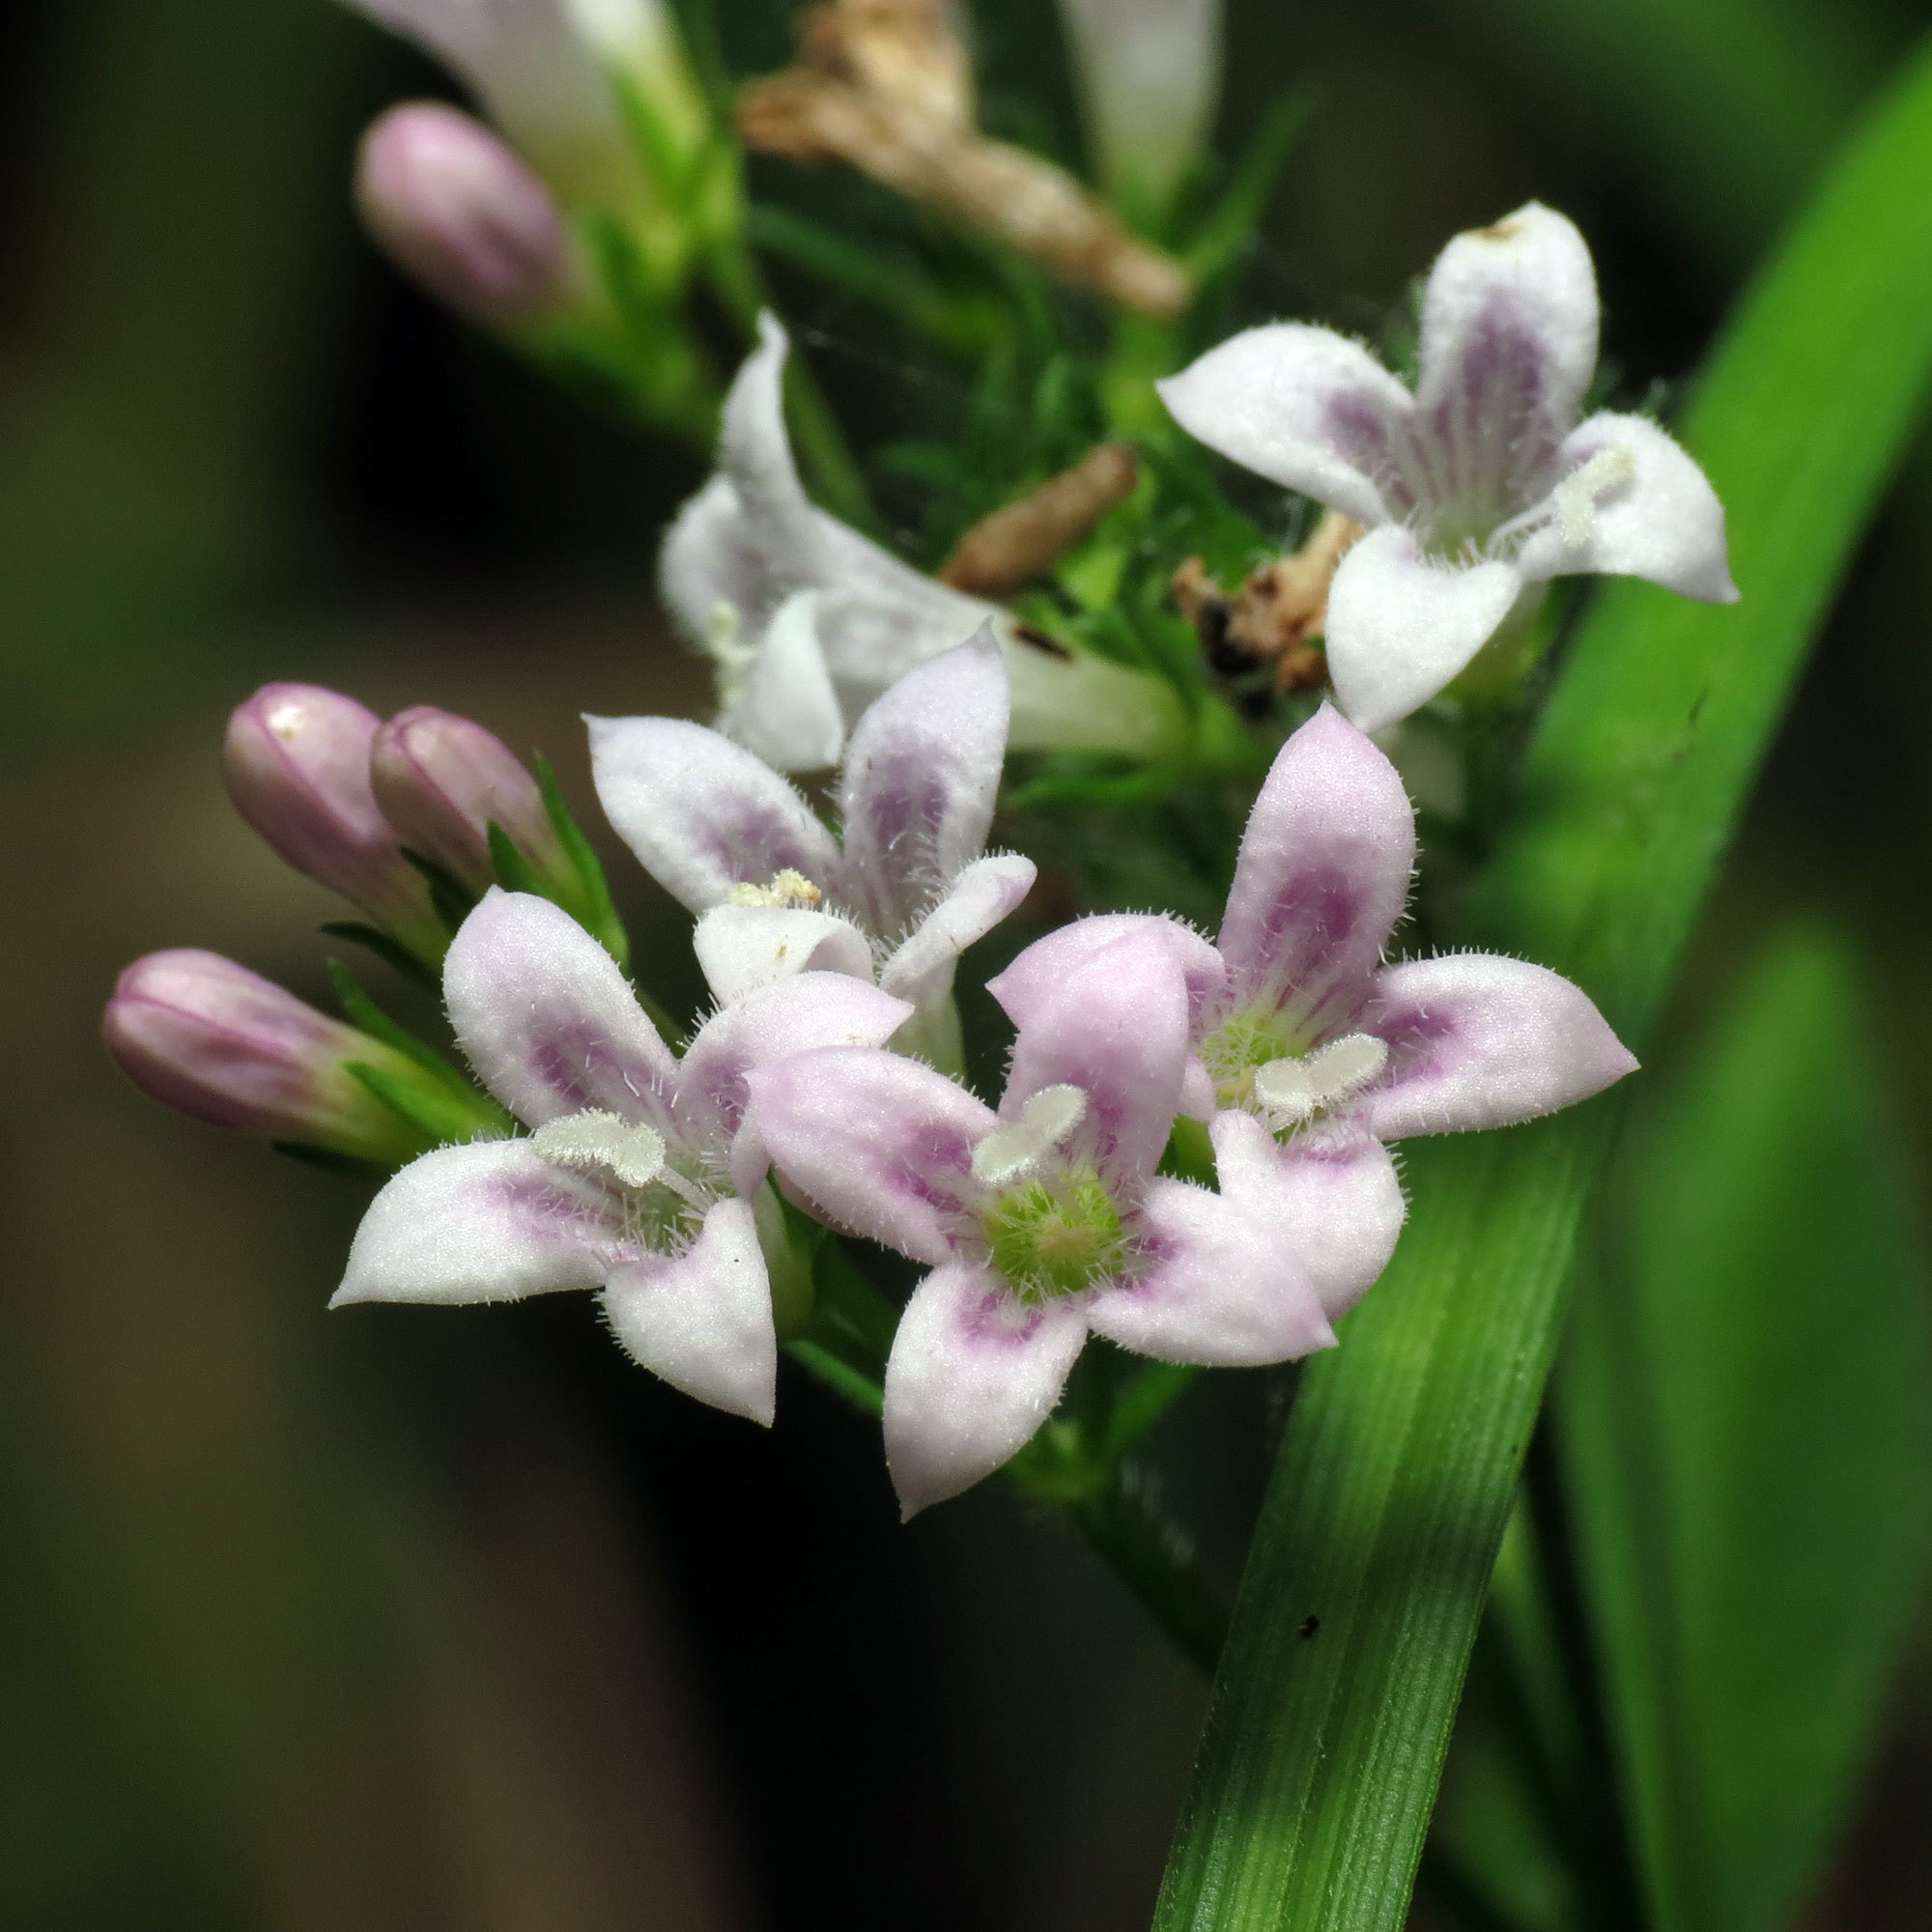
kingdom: Plantae
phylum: Tracheophyta
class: Magnoliopsida
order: Gentianales
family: Rubiaceae
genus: Houstonia
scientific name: Houstonia purpurea
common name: Summer bluet
